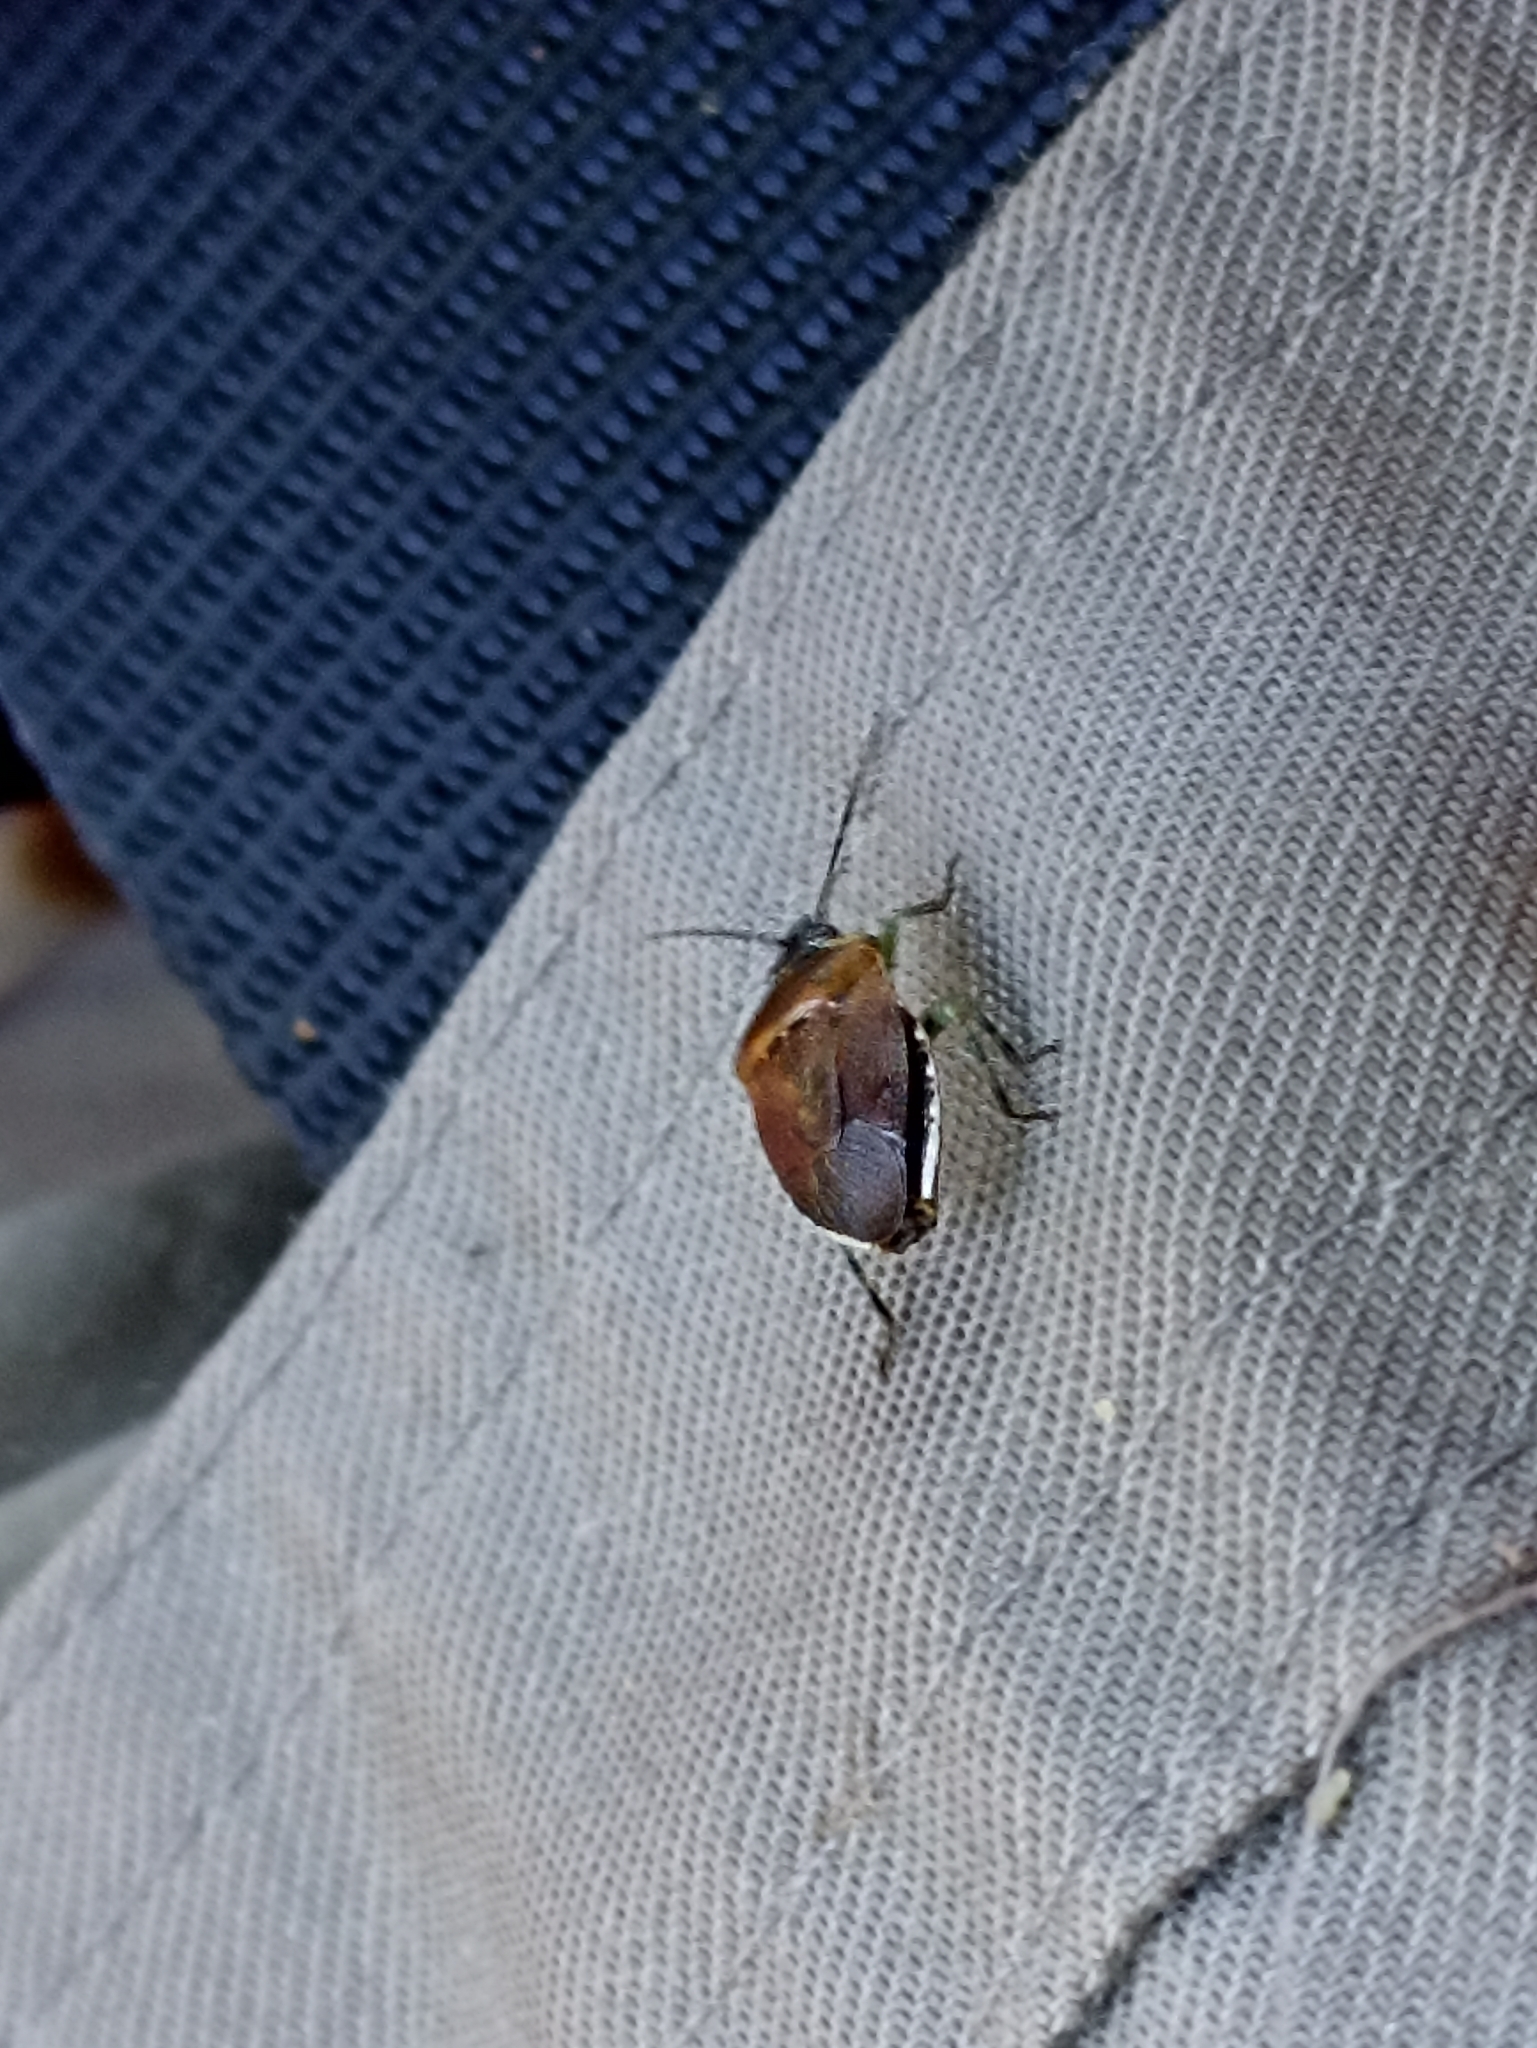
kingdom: Animalia
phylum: Arthropoda
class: Insecta
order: Hemiptera
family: Pentatomidae
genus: Monteithiella
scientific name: Monteithiella
